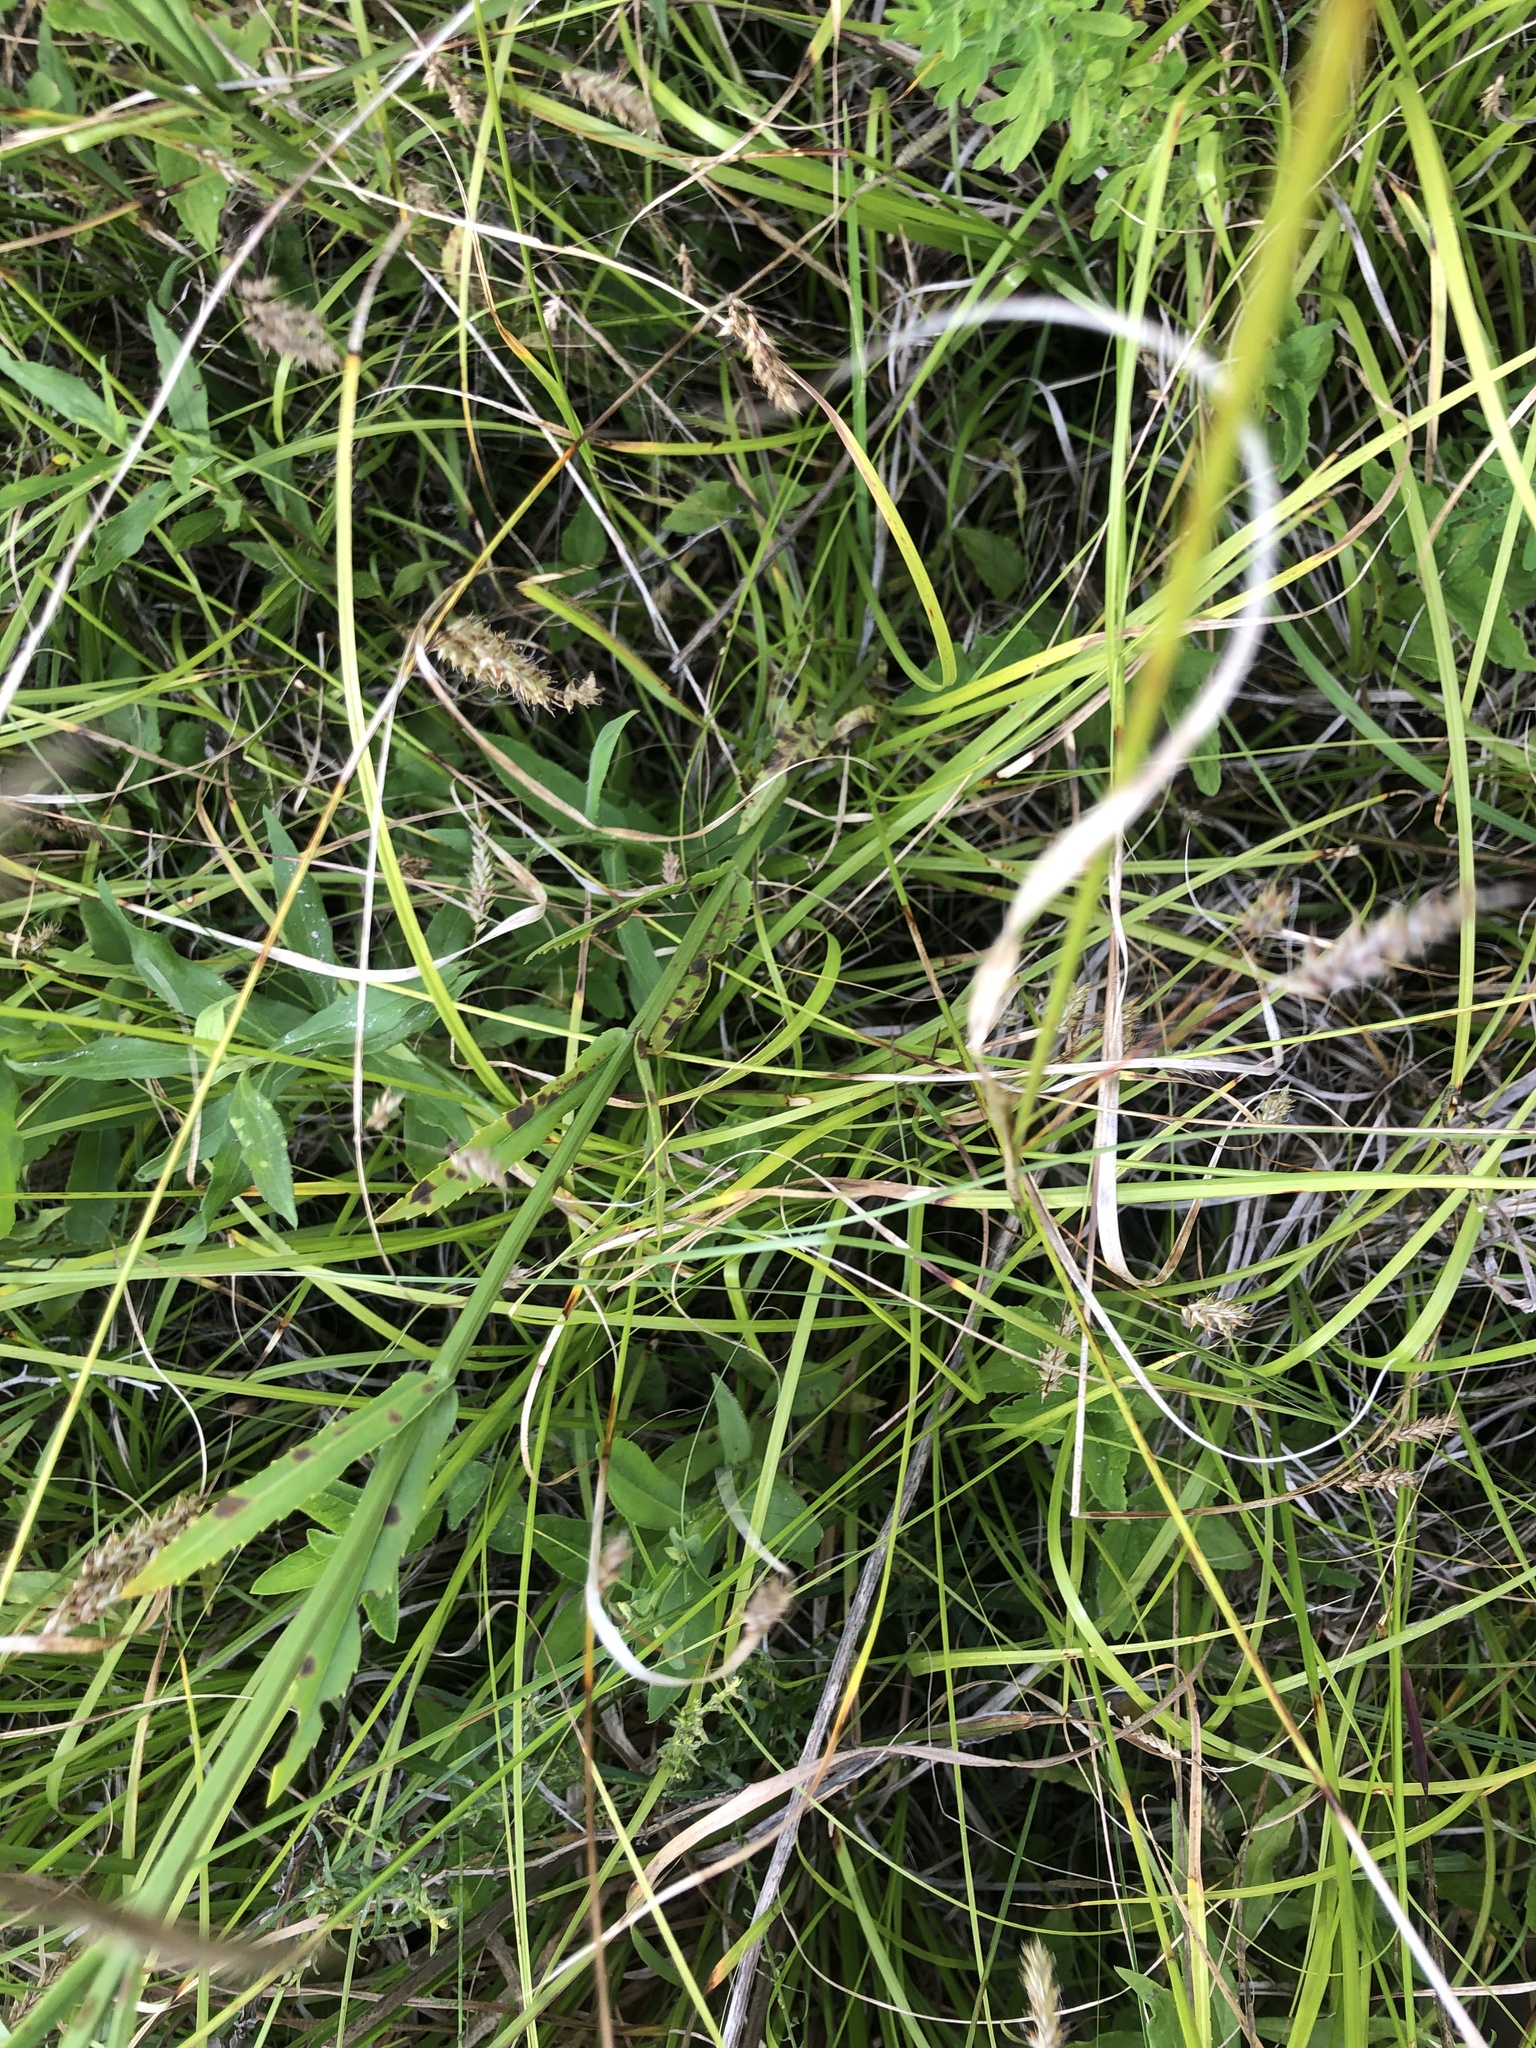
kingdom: Plantae
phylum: Tracheophyta
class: Magnoliopsida
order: Lamiales
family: Lamiaceae
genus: Physostegia
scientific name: Physostegia angustifolia
